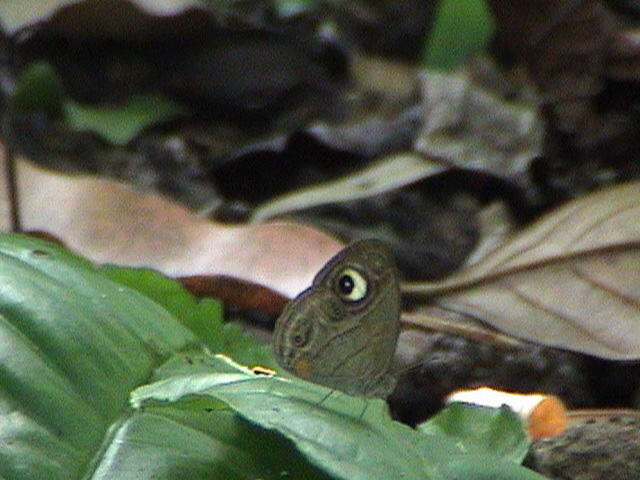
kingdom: Animalia
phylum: Arthropoda
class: Insecta
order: Lepidoptera
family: Nymphalidae
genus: Mycalesis
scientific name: Mycalesis patnia
